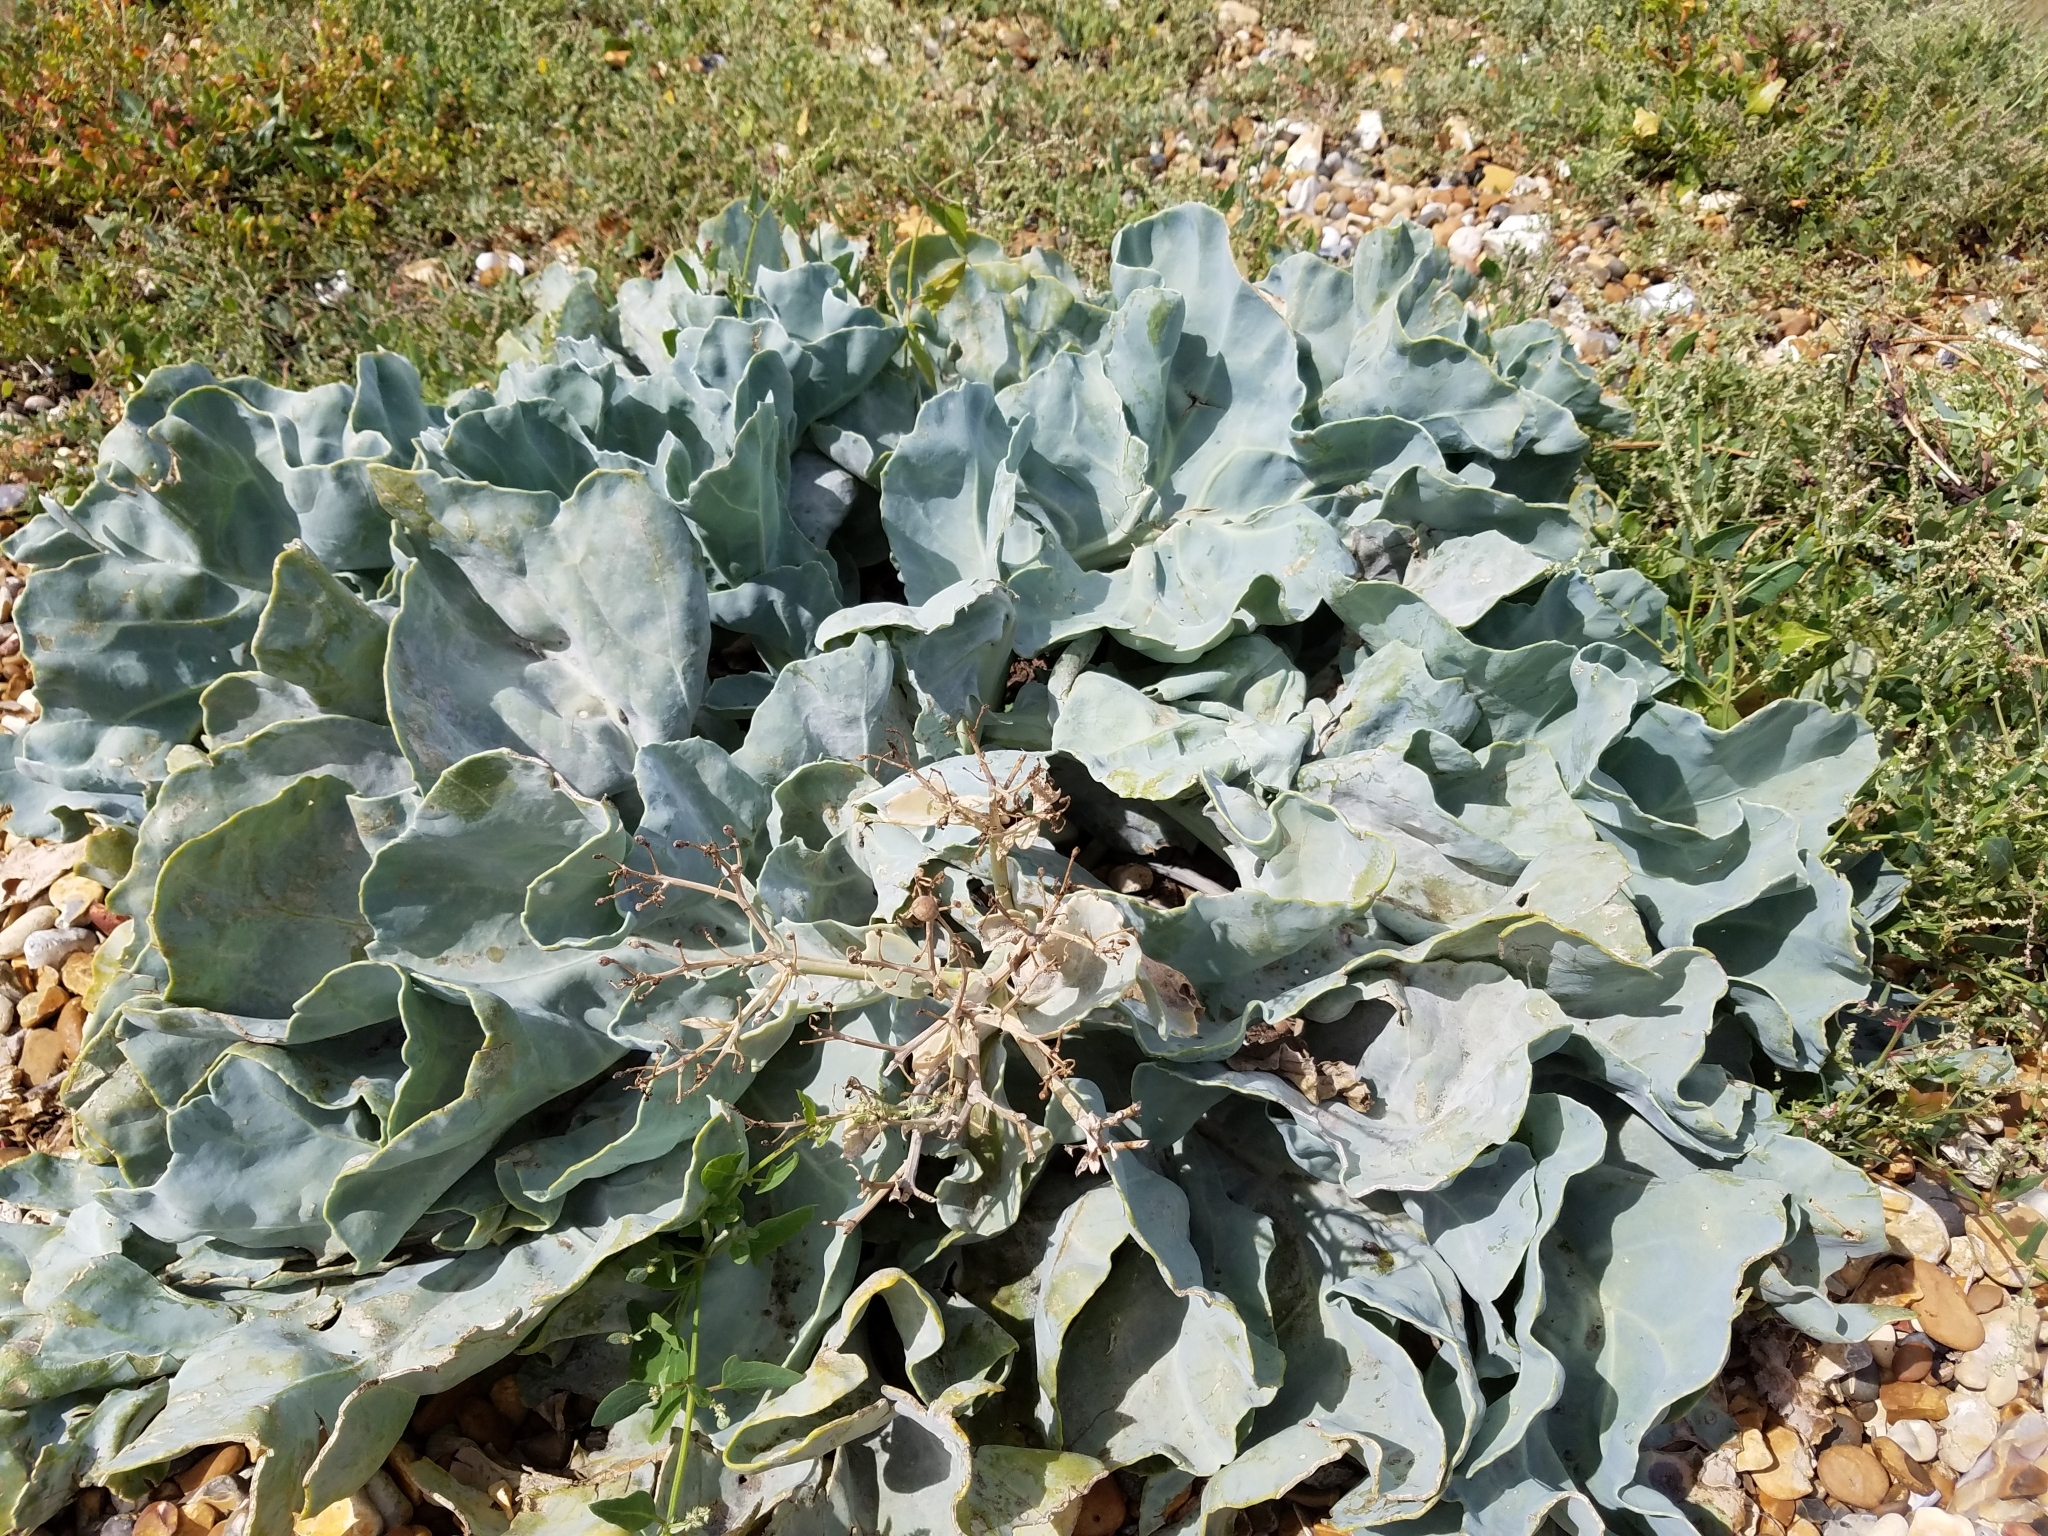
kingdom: Plantae
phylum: Tracheophyta
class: Magnoliopsida
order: Brassicales
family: Brassicaceae
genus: Crambe
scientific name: Crambe maritima
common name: Sea-kale
